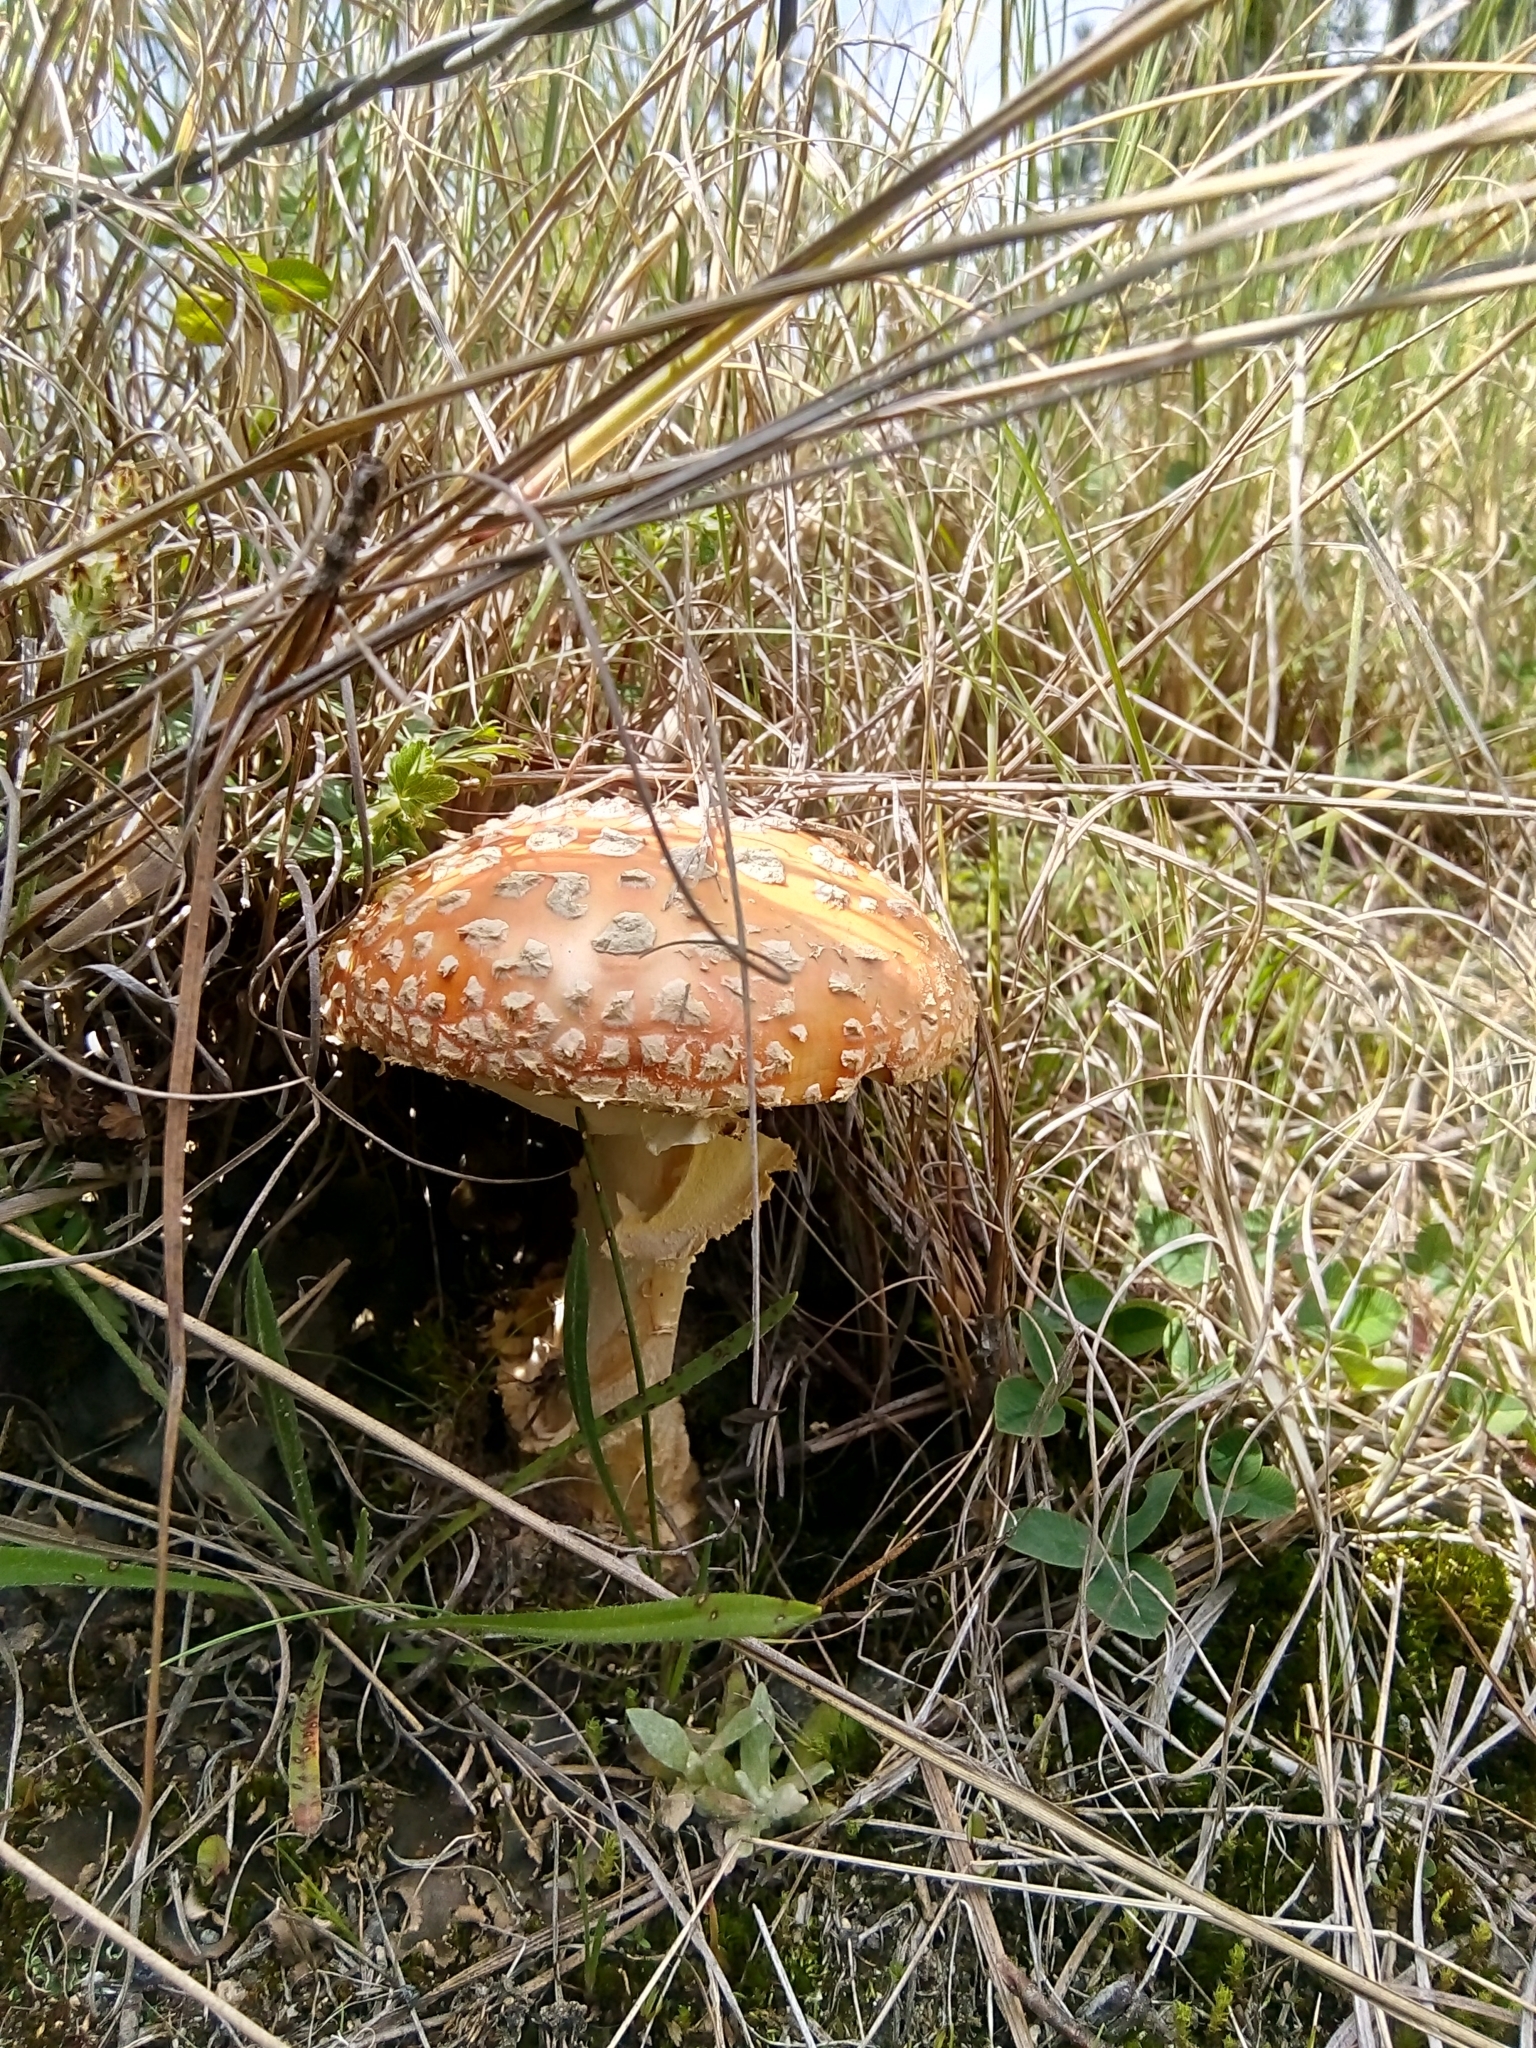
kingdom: Fungi
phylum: Basidiomycota
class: Agaricomycetes
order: Agaricales
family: Amanitaceae
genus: Amanita
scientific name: Amanita muscaria
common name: Fly agaric
